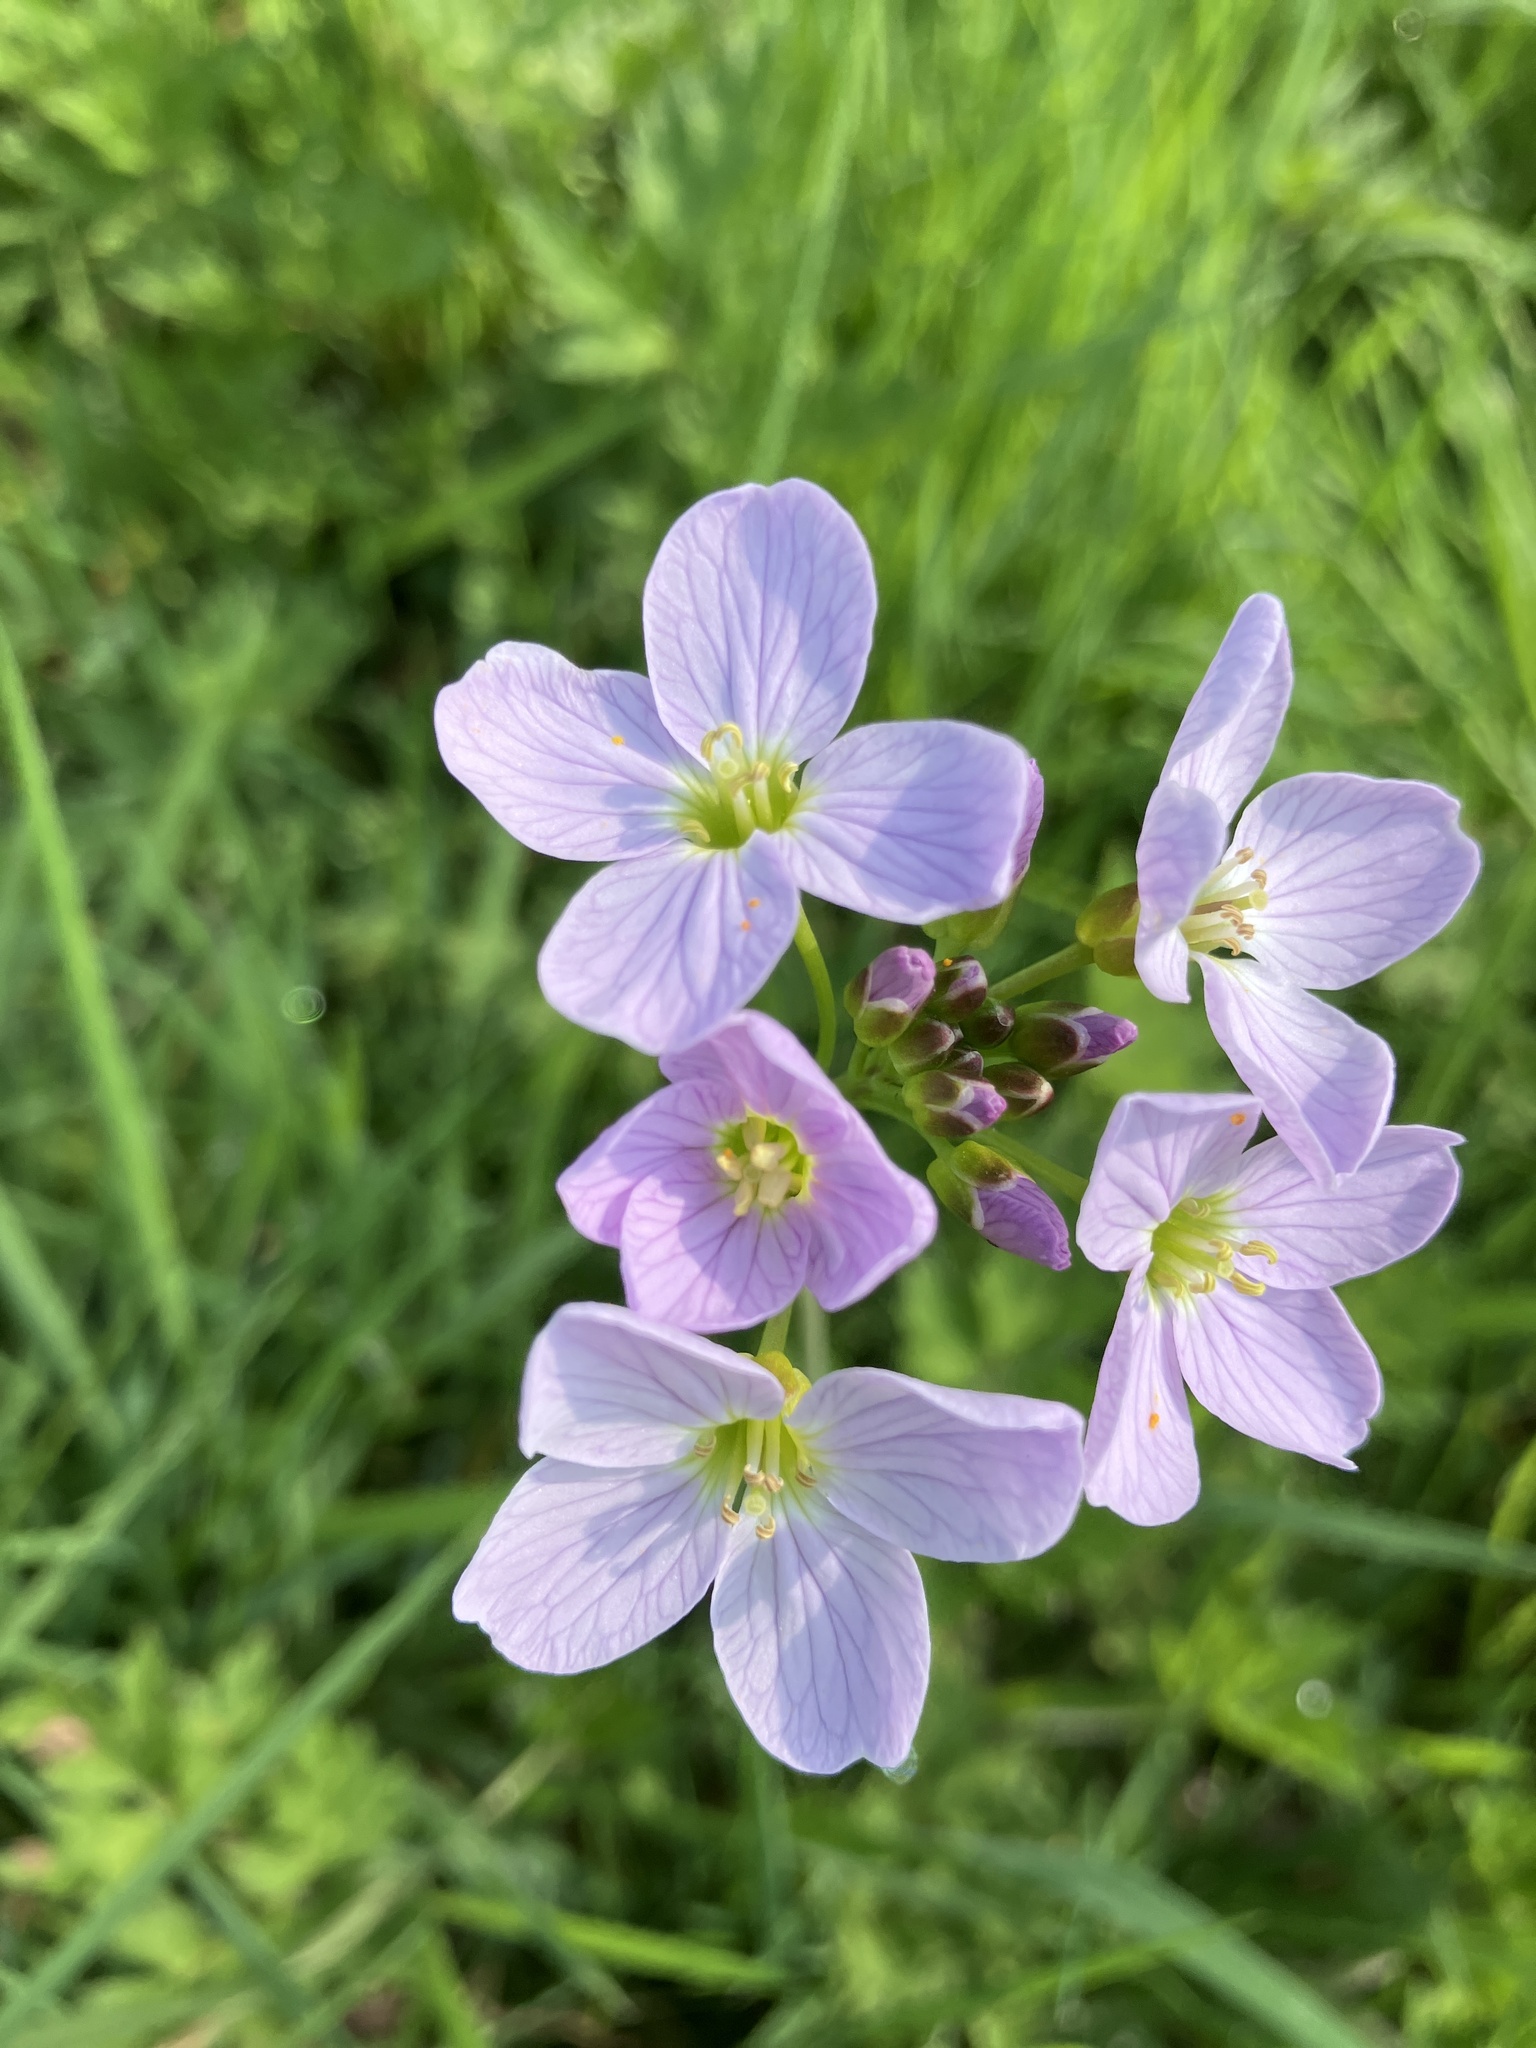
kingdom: Plantae
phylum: Tracheophyta
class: Magnoliopsida
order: Brassicales
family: Brassicaceae
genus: Cardamine
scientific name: Cardamine pratensis
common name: Cuckoo flower
